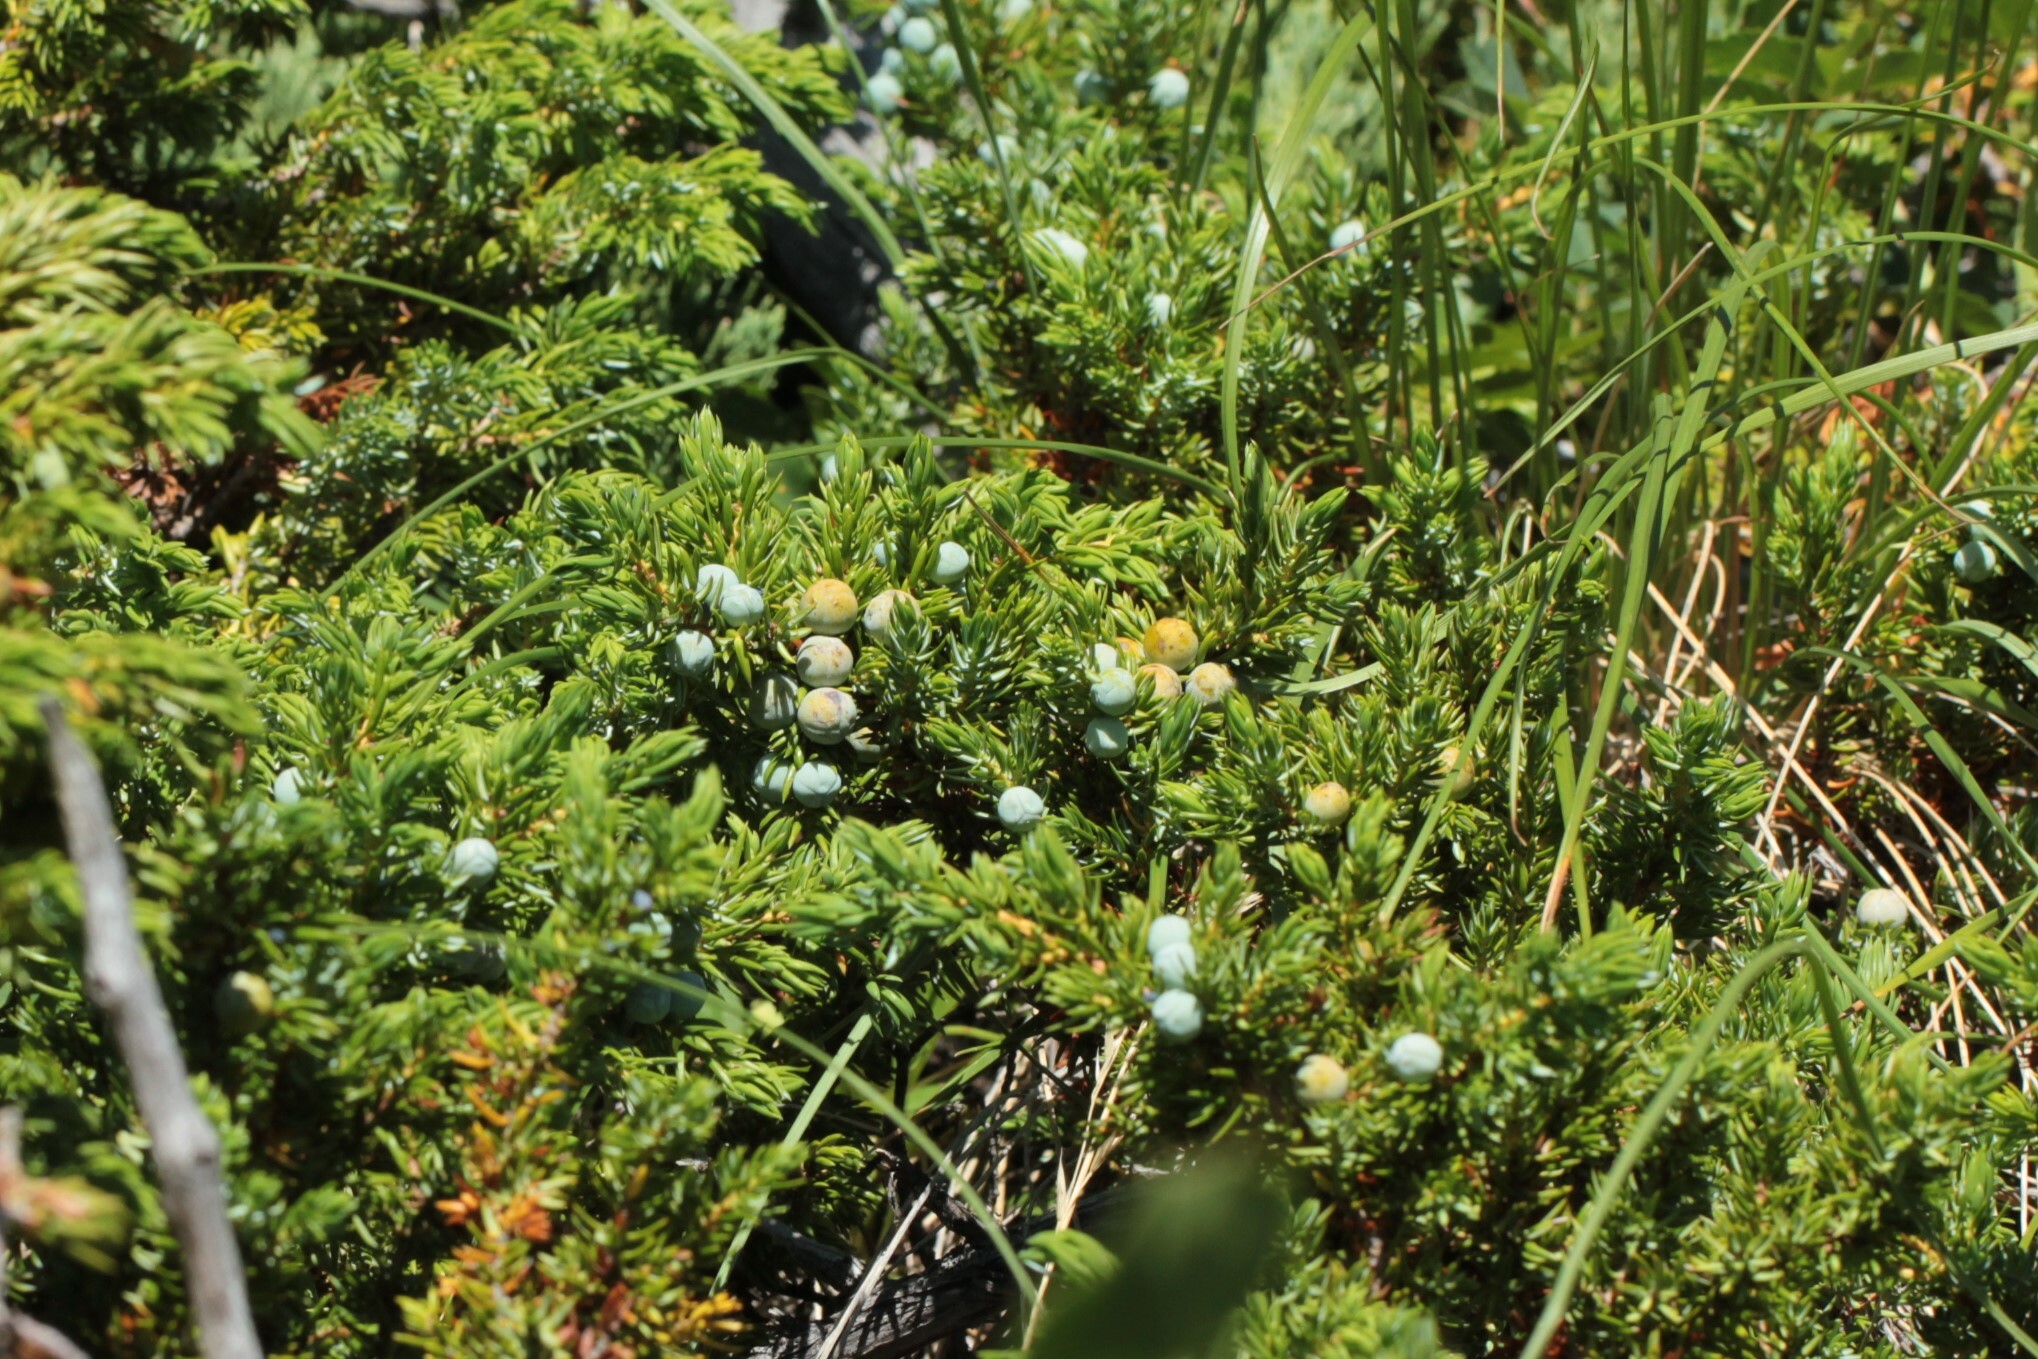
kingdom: Plantae
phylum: Tracheophyta
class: Pinopsida
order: Pinales
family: Cupressaceae
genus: Juniperus
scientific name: Juniperus communis
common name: Common juniper
